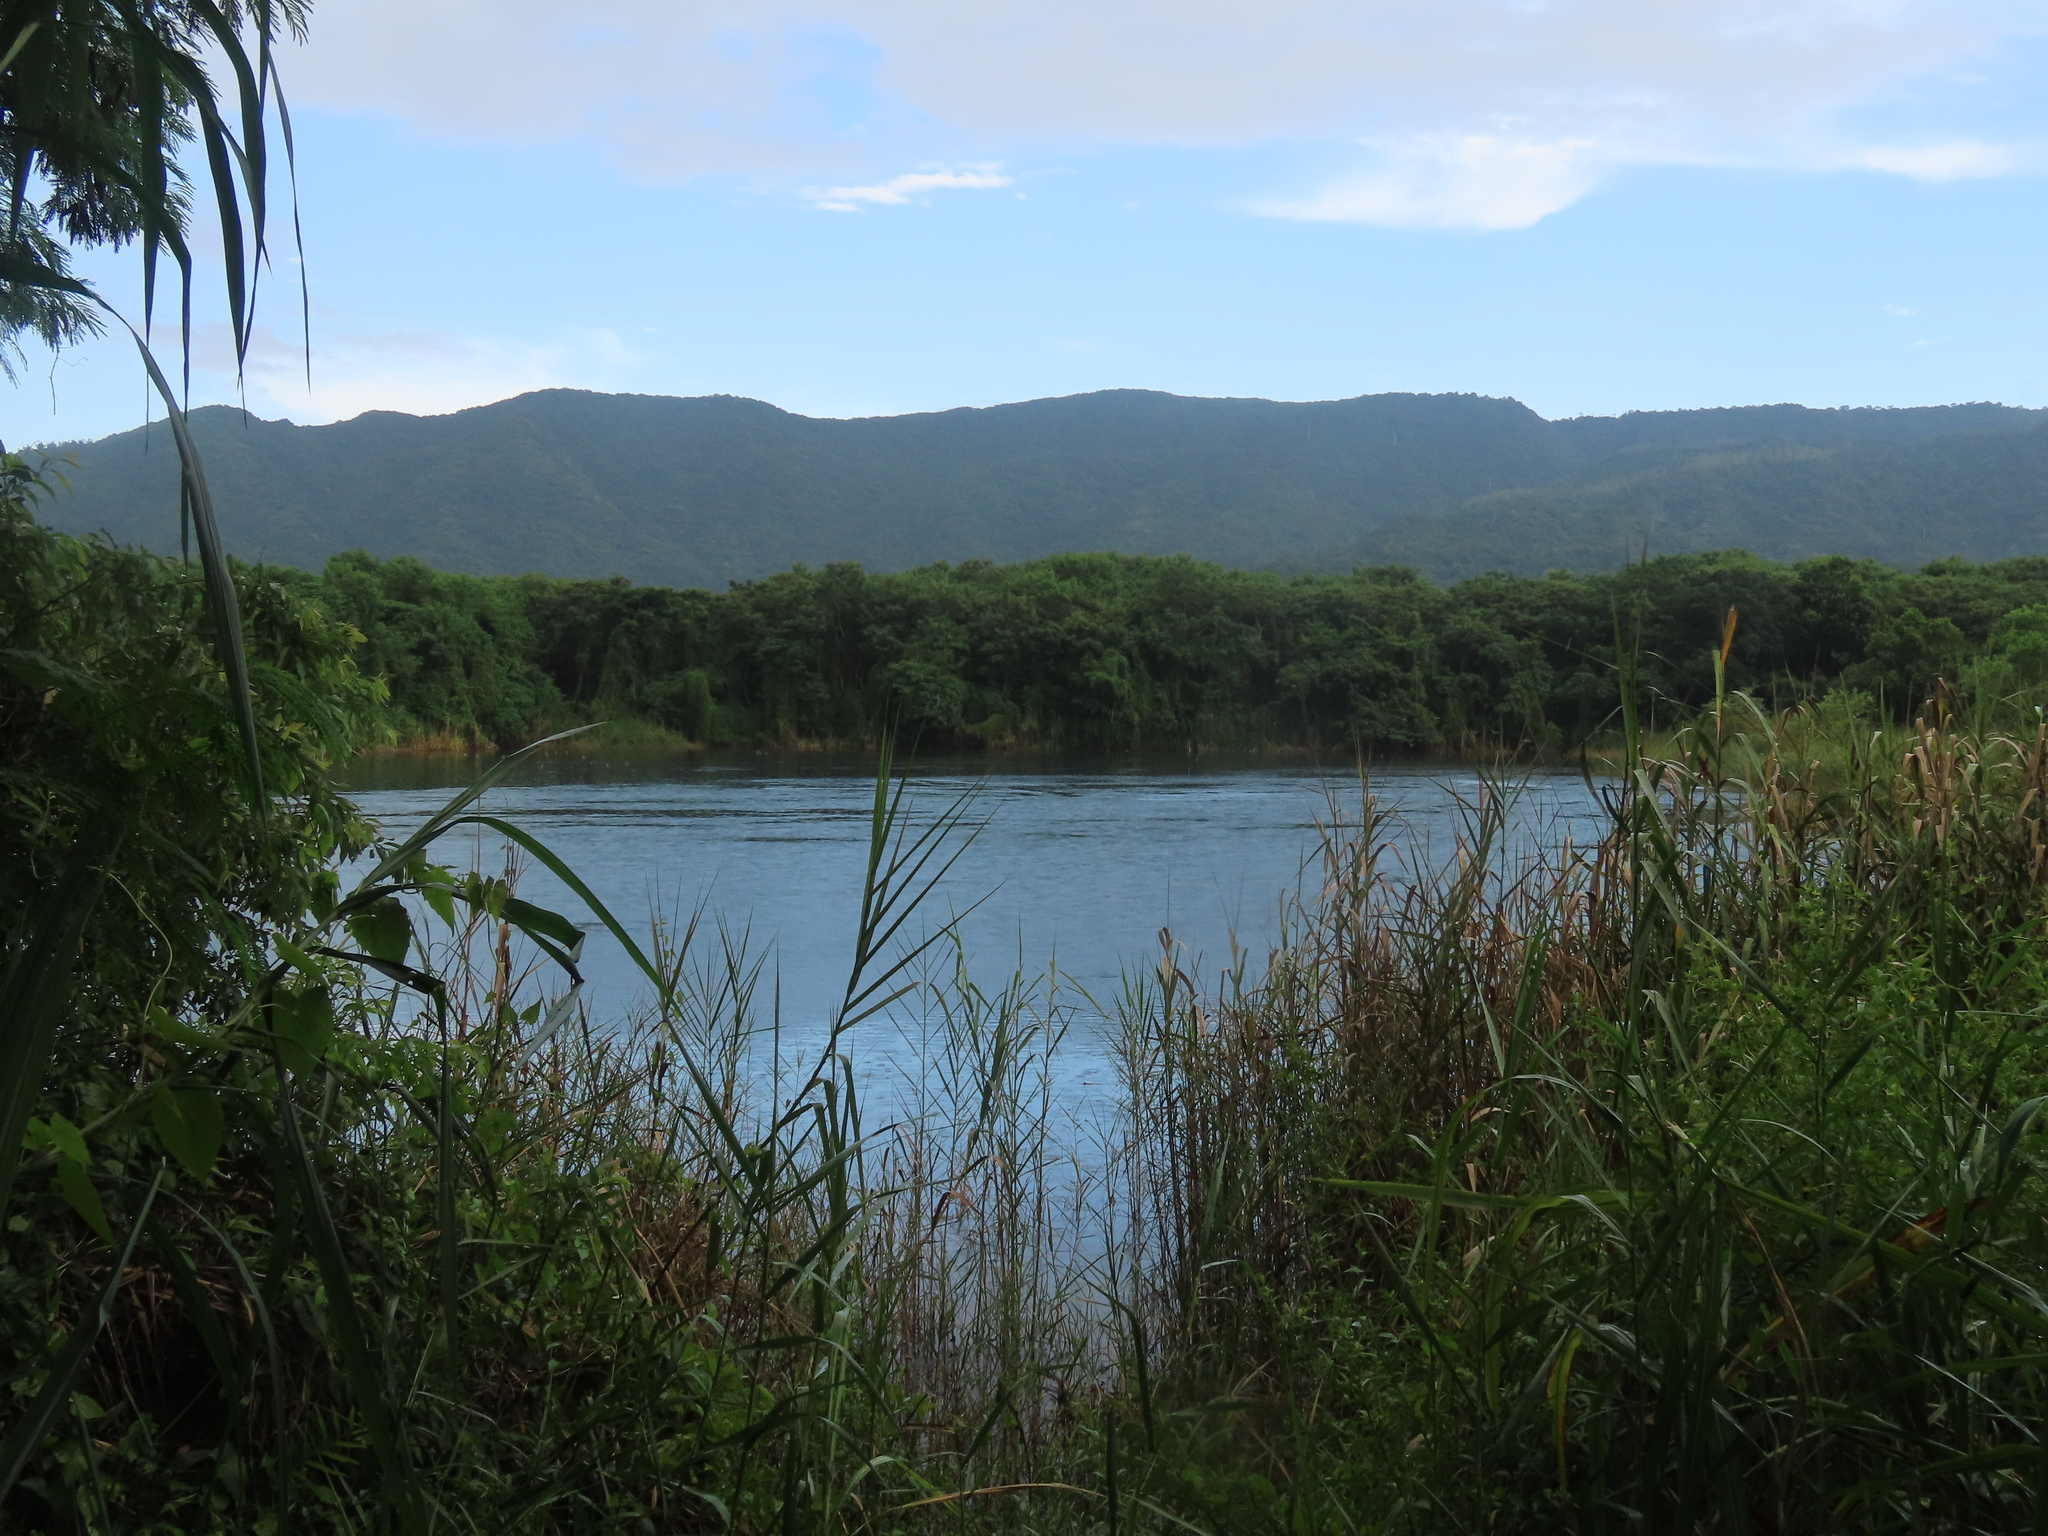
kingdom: Animalia
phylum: Chordata
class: Aves
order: Anseriformes
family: Anatidae
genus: Anas
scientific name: Anas zonorhyncha
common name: Eastern spot-billed duck
